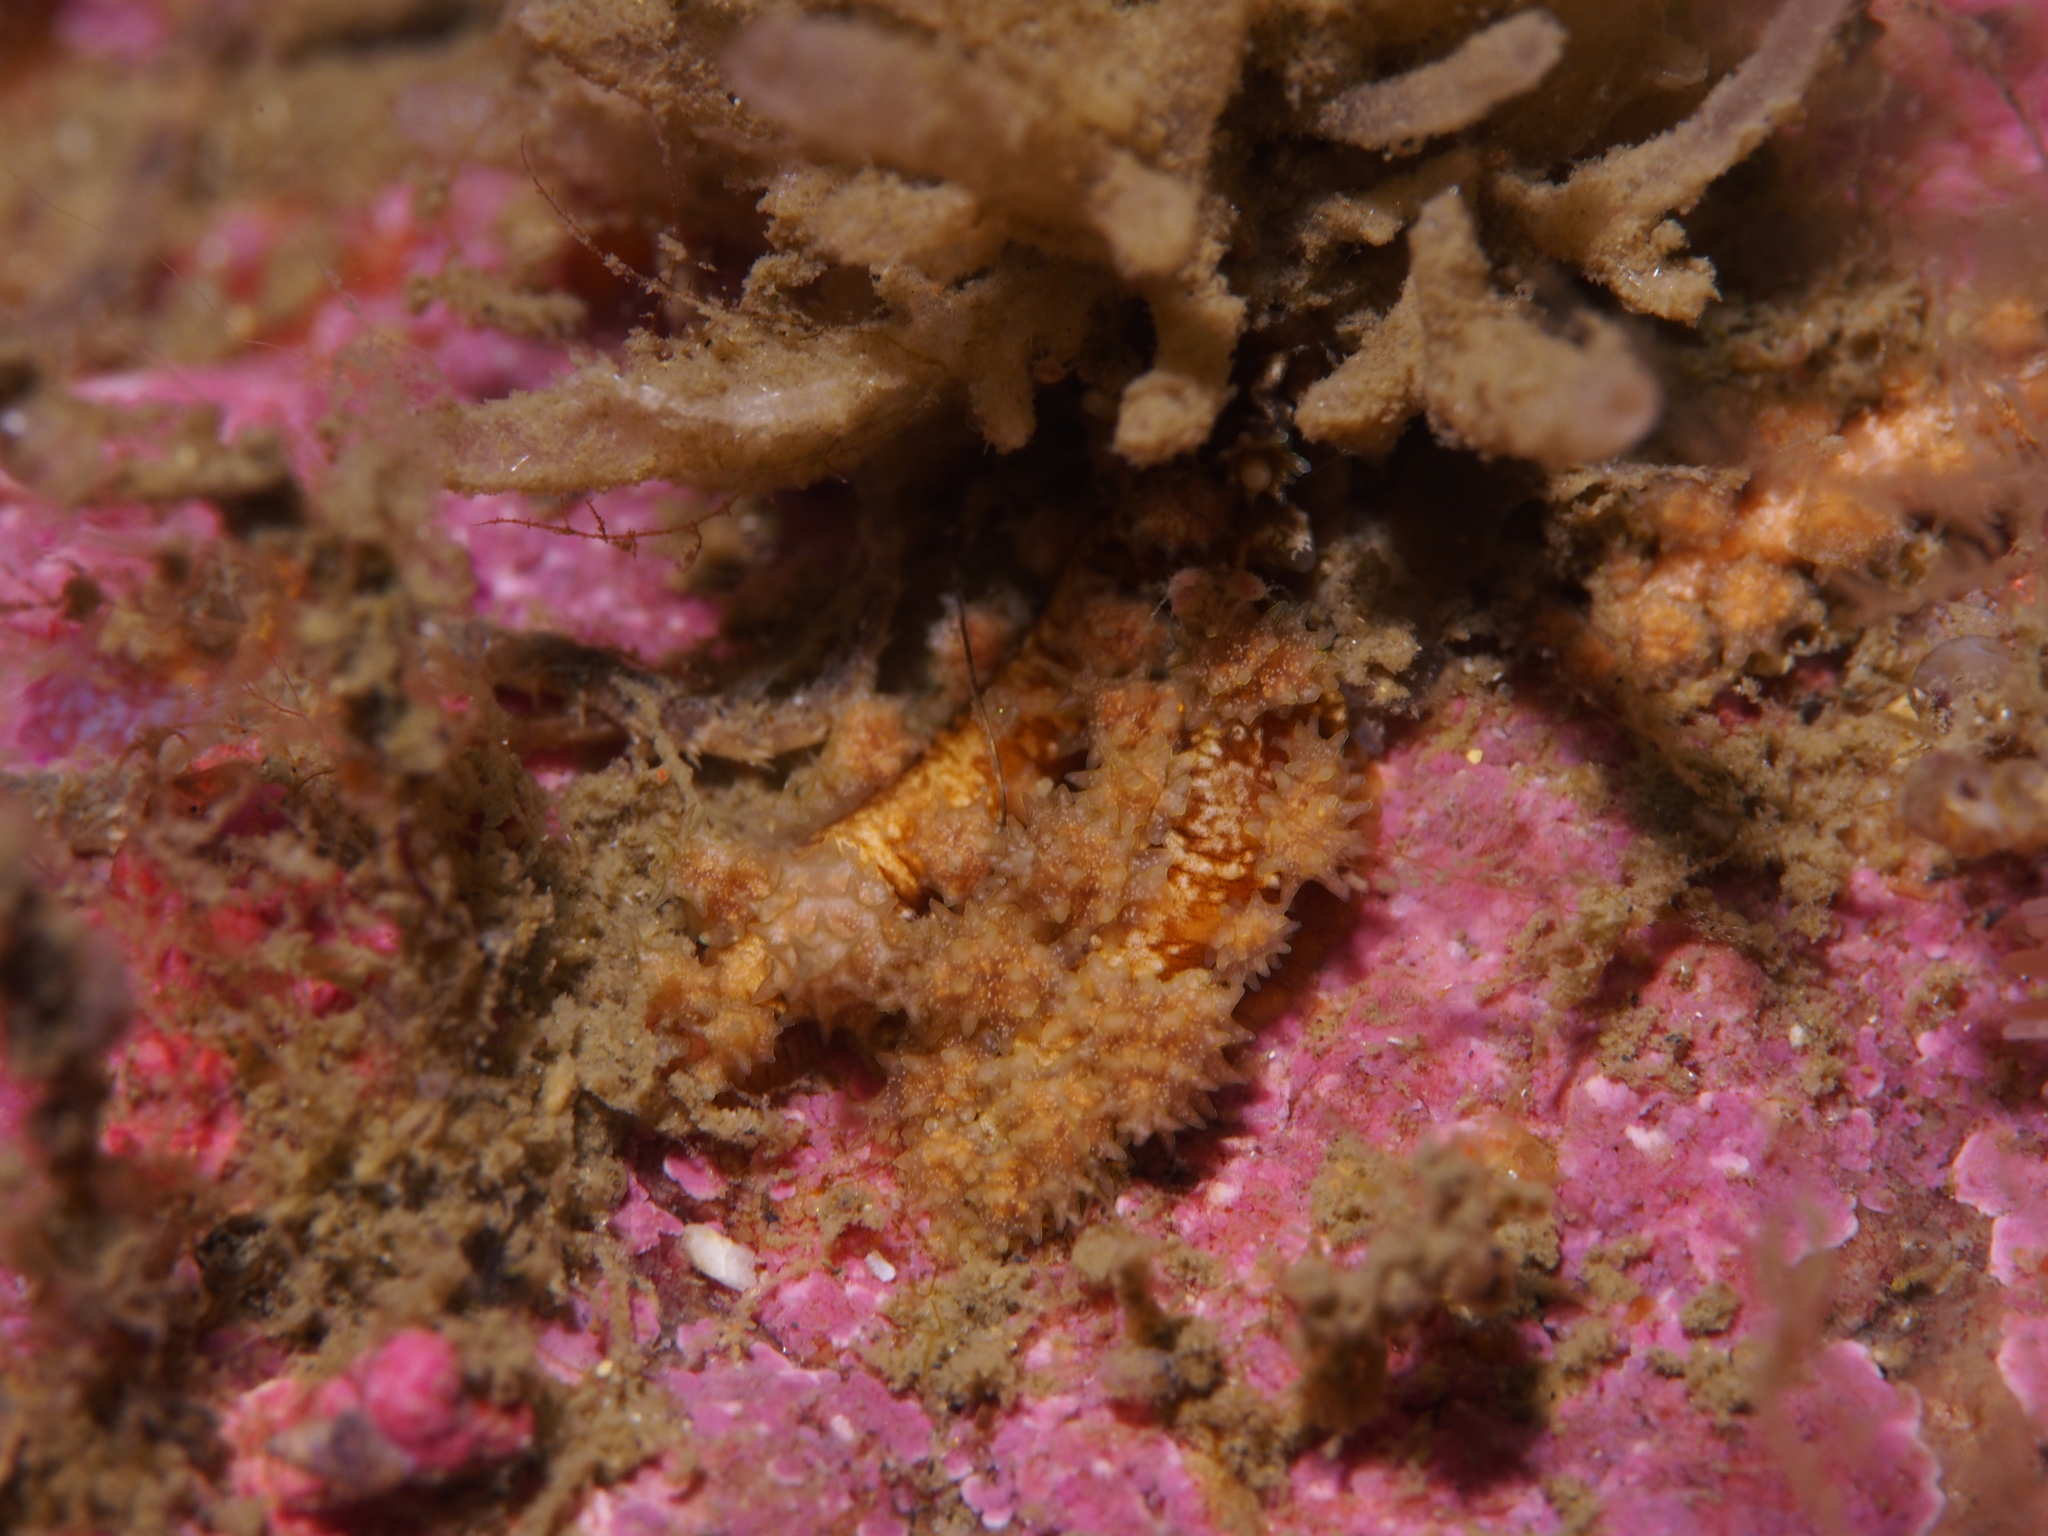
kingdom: Animalia
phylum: Mollusca
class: Gastropoda
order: Nudibranchia
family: Dotidae
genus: Doto
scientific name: Doto hystrix
